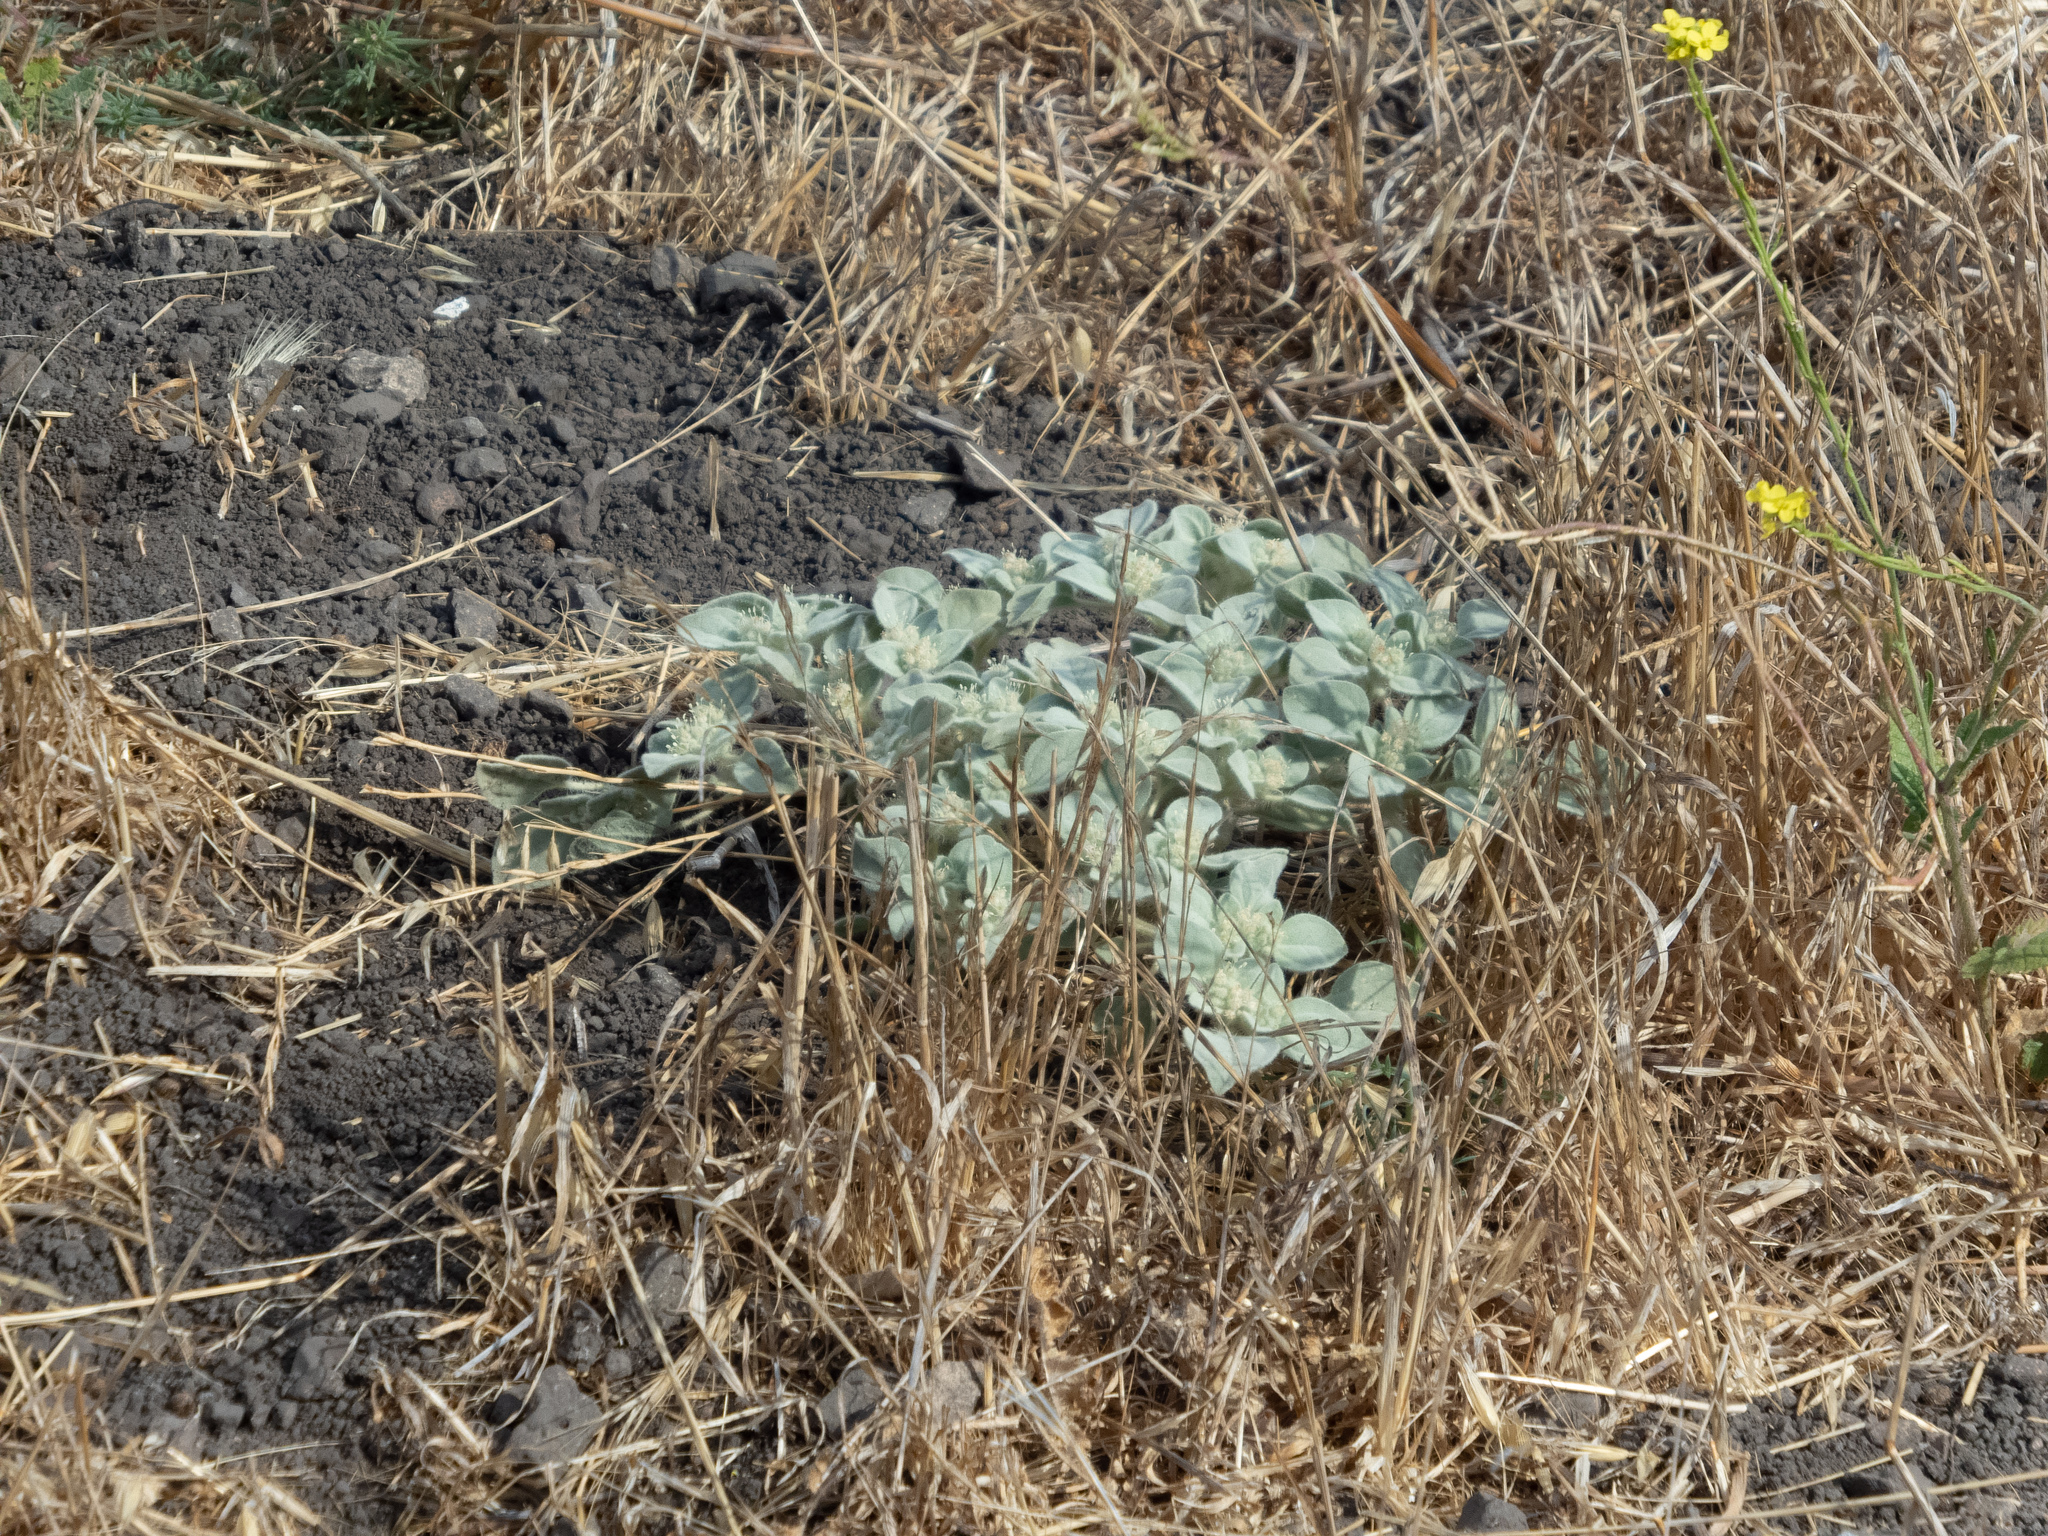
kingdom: Plantae
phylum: Tracheophyta
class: Magnoliopsida
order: Malpighiales
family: Euphorbiaceae
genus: Croton
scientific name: Croton setiger
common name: Dove weed
